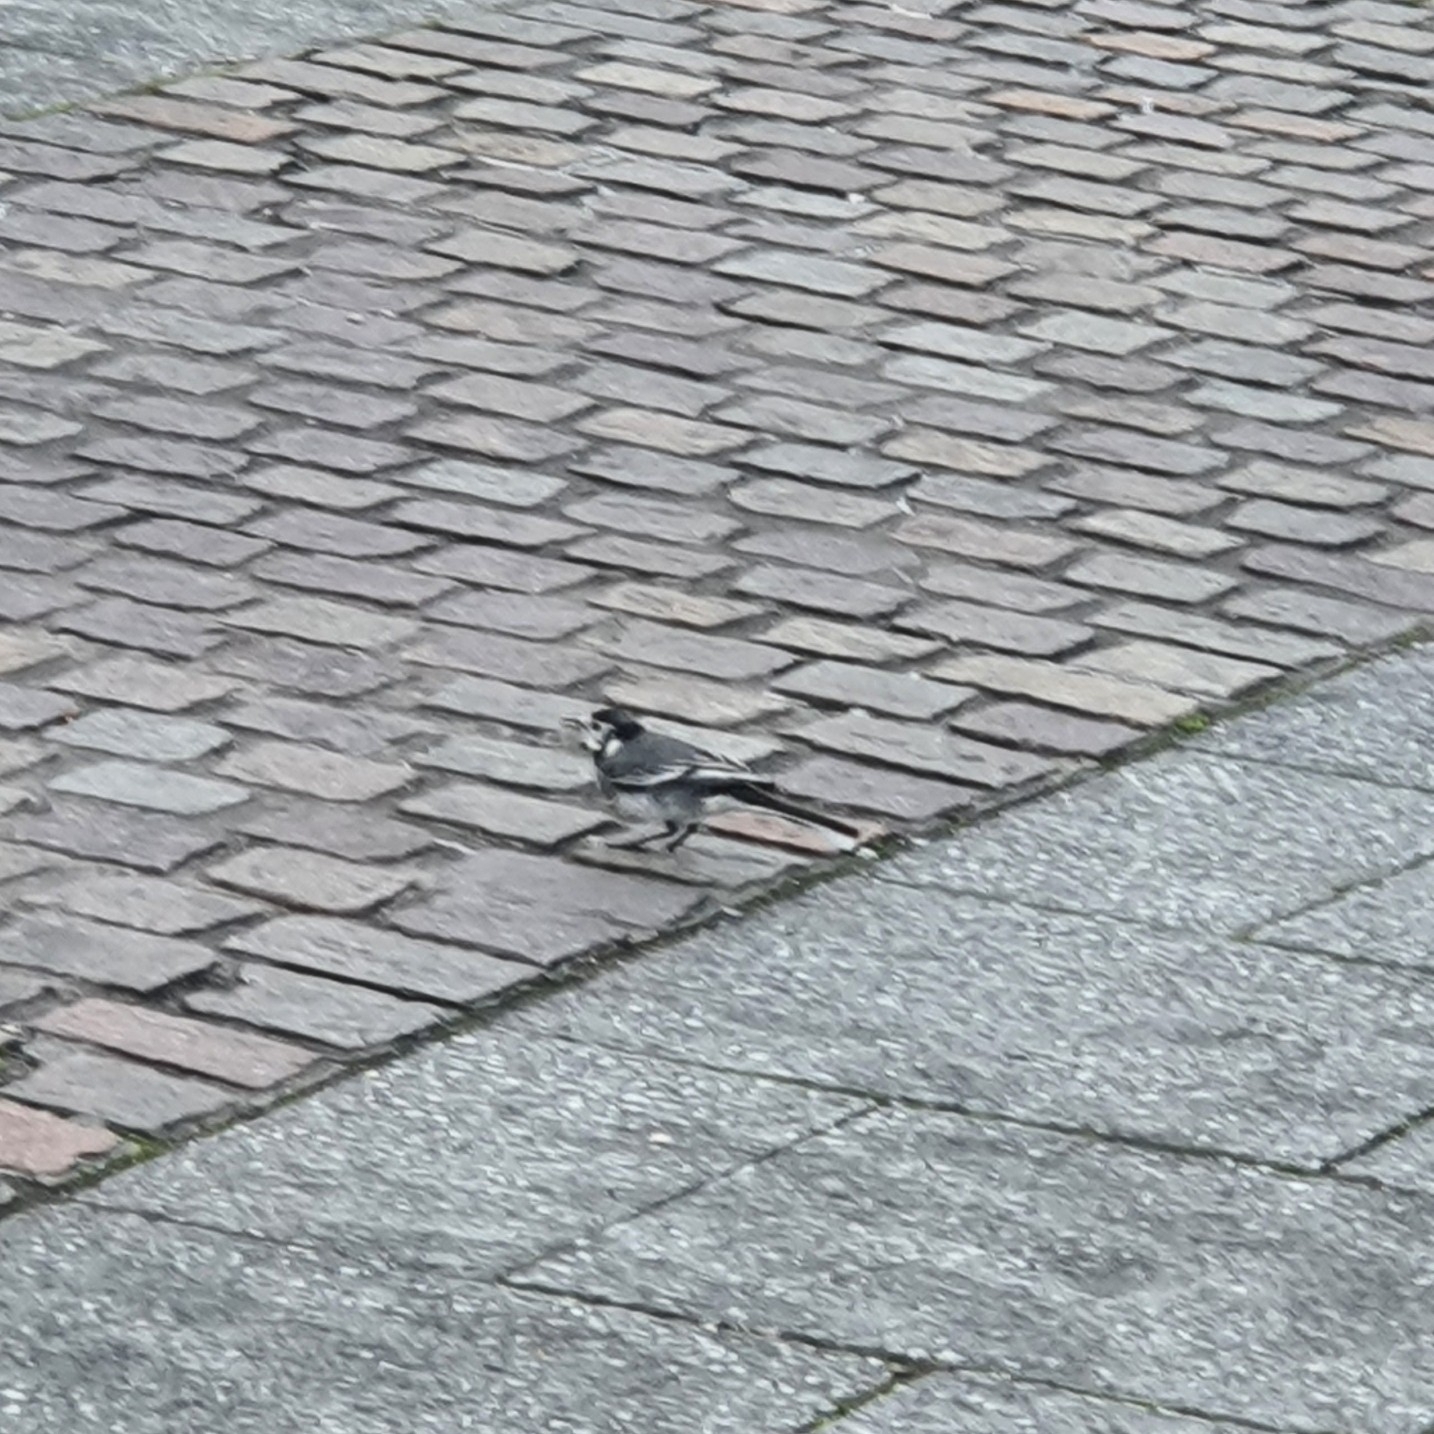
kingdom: Animalia
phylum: Chordata
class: Aves
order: Passeriformes
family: Motacillidae
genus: Motacilla
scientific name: Motacilla alba
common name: White wagtail
